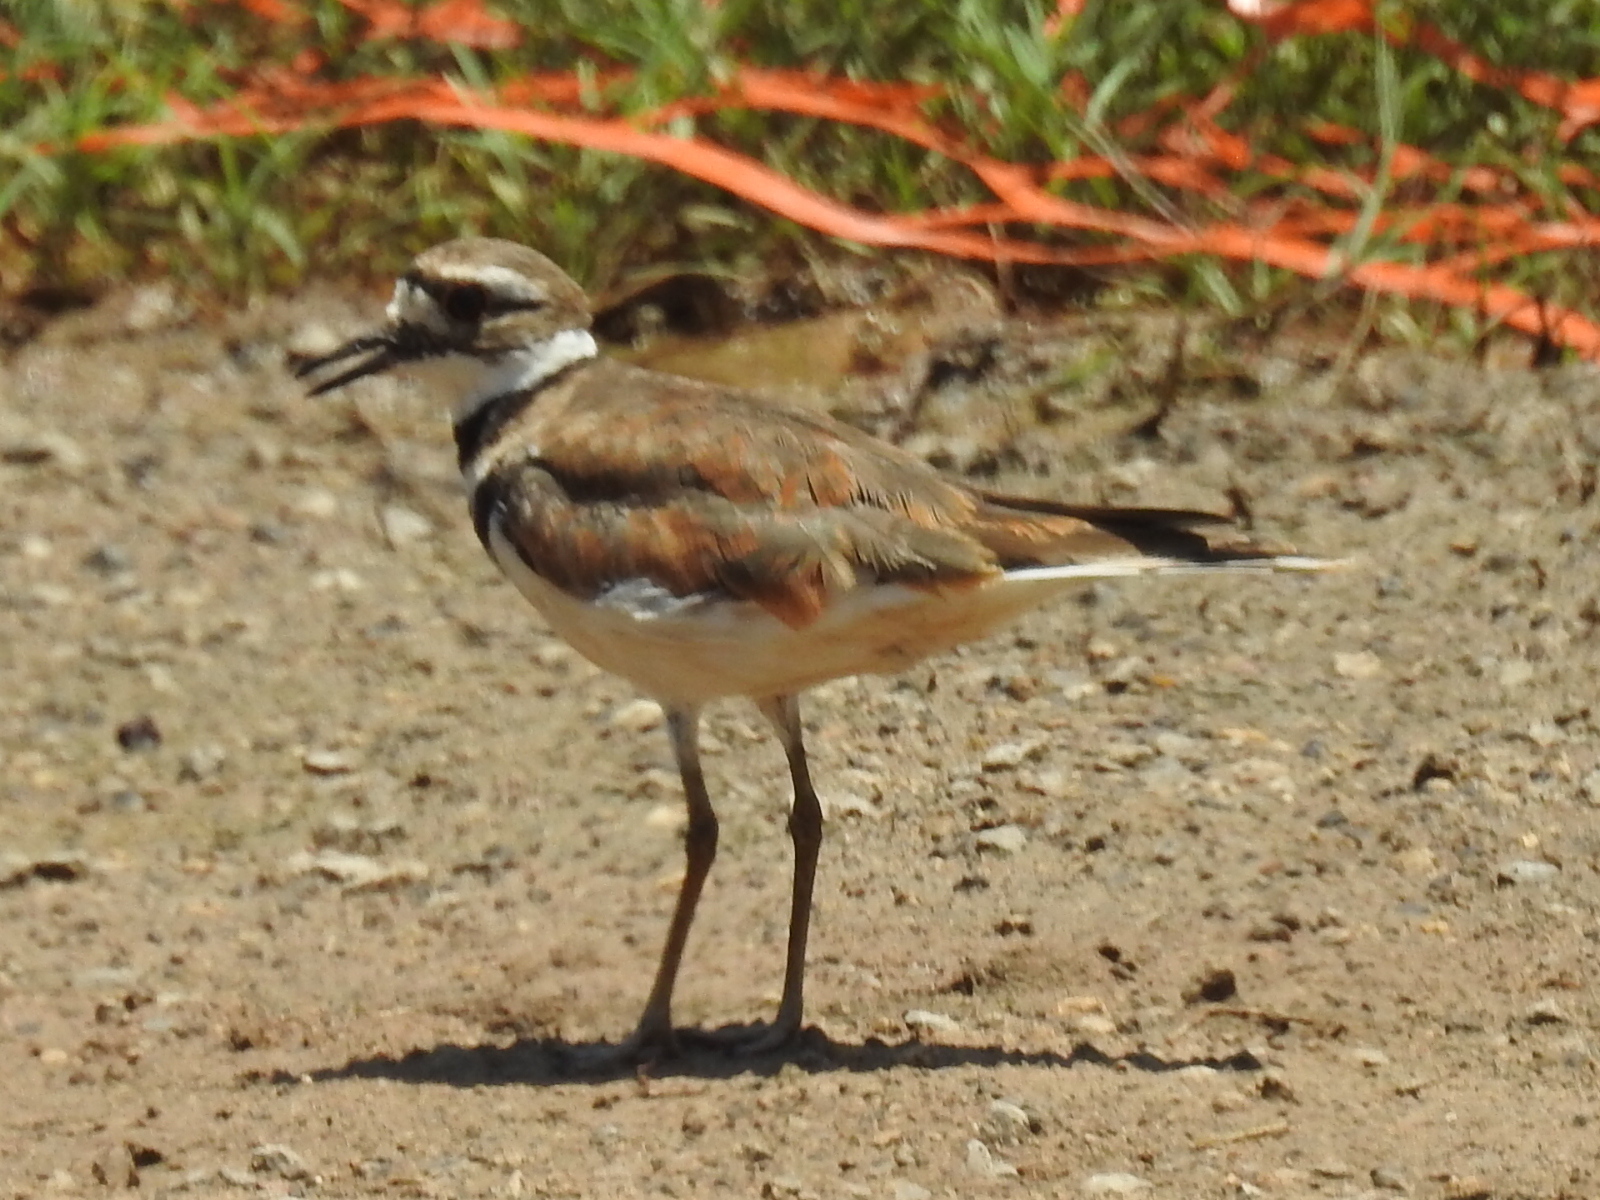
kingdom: Animalia
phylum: Chordata
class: Aves
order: Charadriiformes
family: Charadriidae
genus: Charadrius
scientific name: Charadrius vociferus
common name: Killdeer
